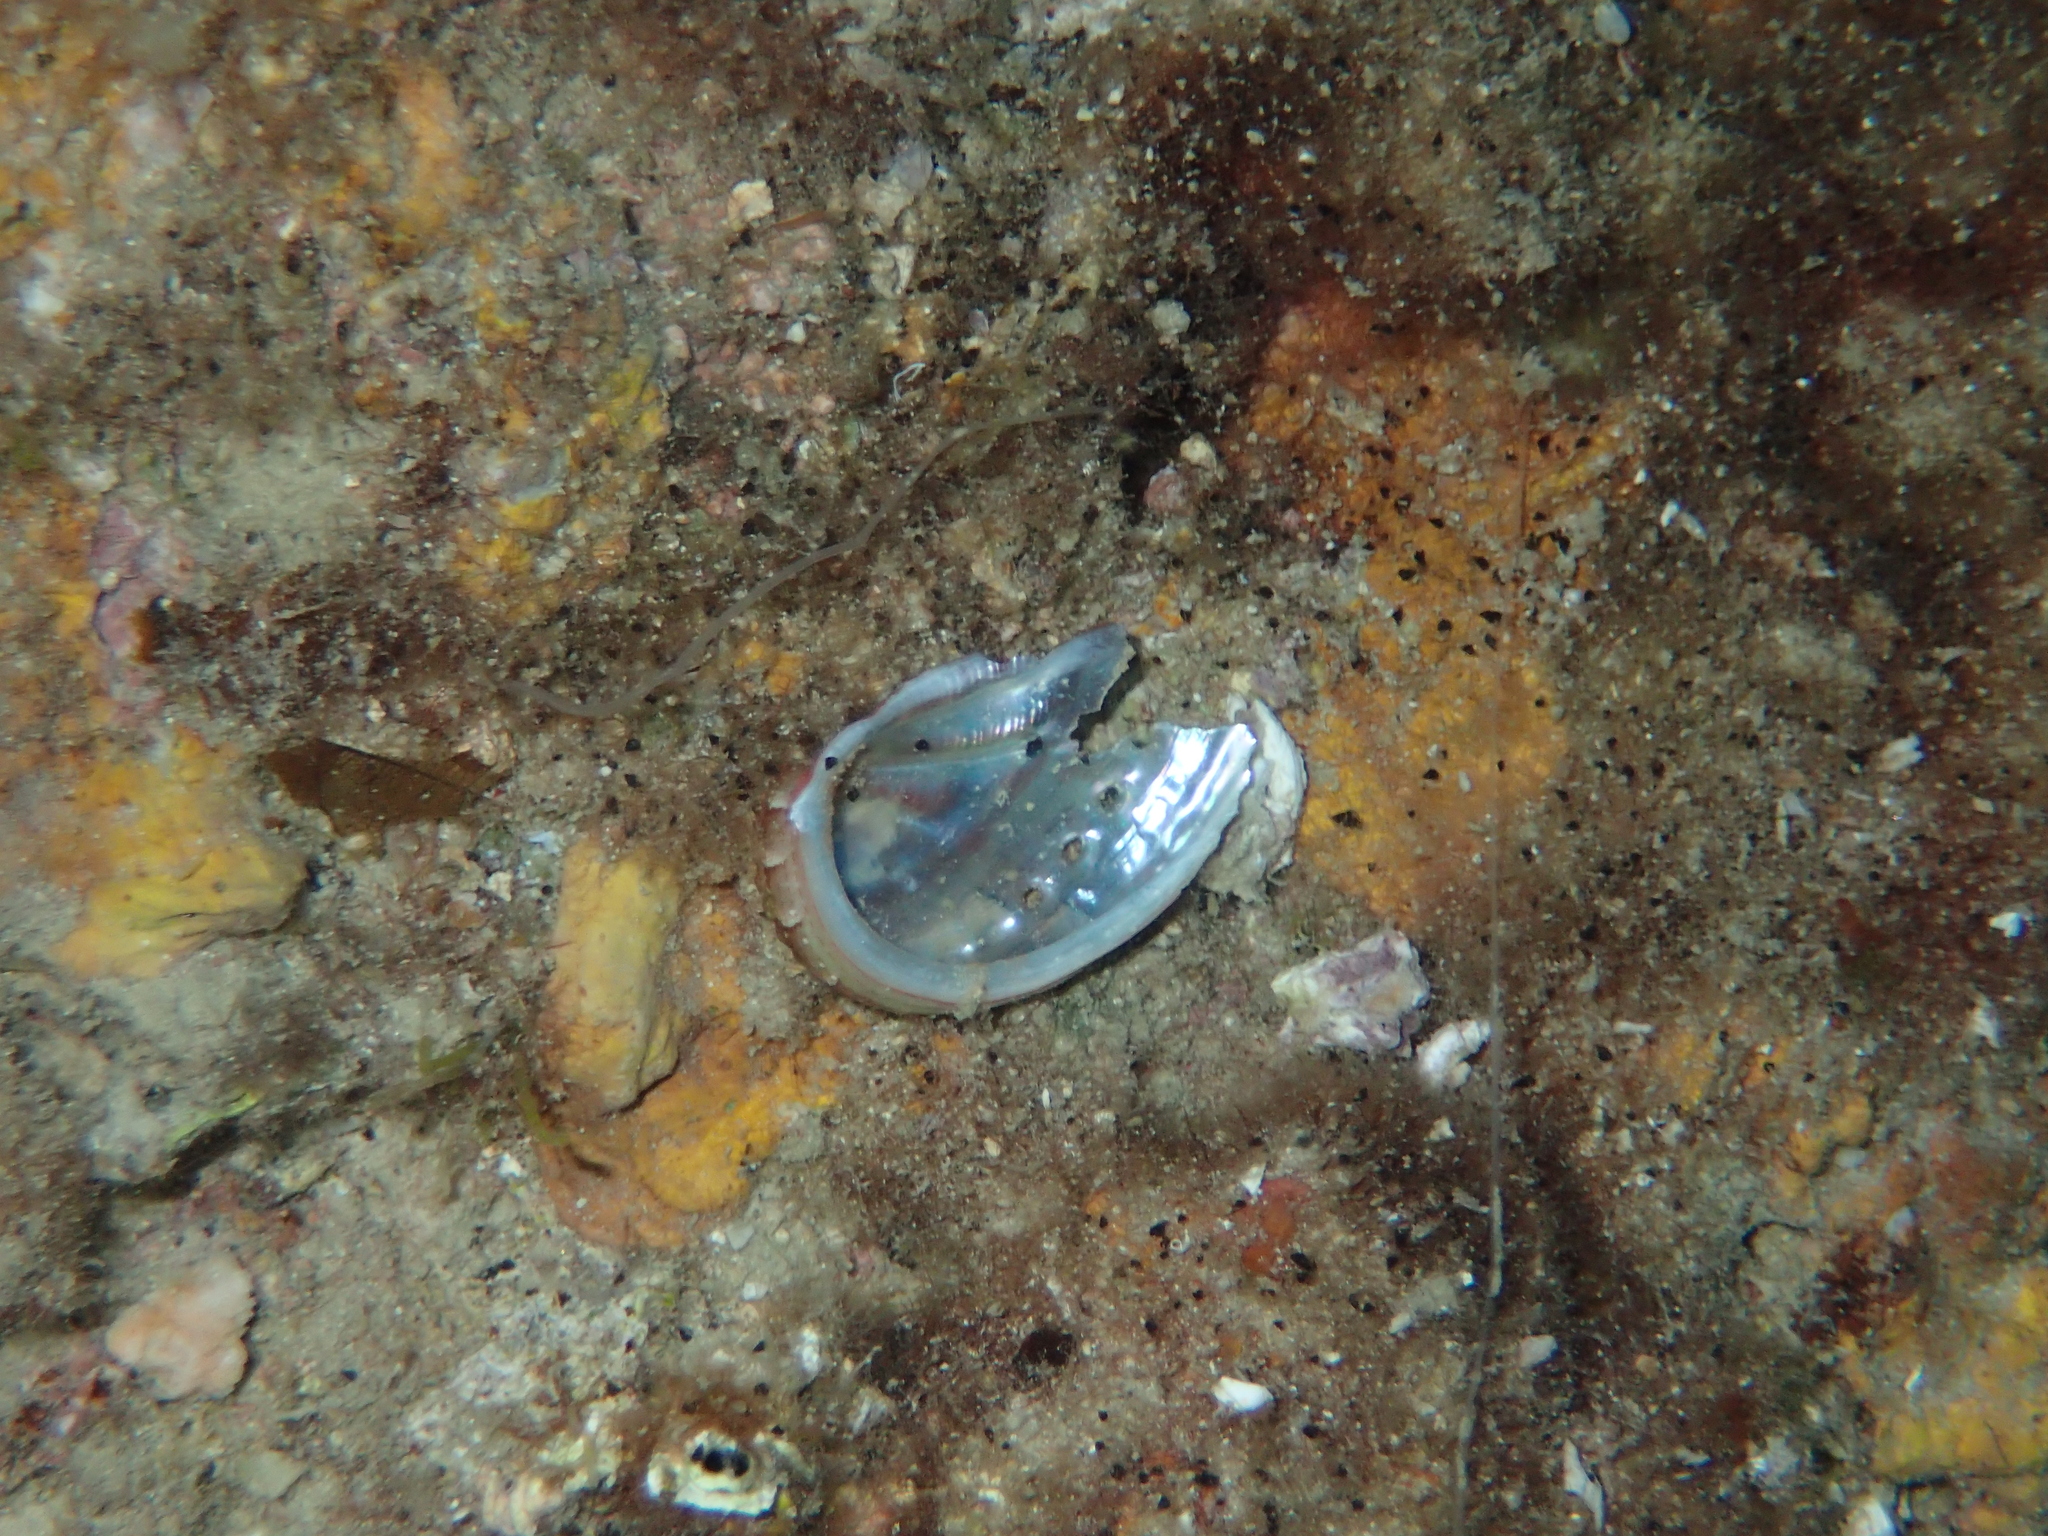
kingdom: Animalia
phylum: Mollusca
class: Gastropoda
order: Lepetellida
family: Haliotidae
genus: Haliotis
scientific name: Haliotis tuberculata
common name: Green ormer
